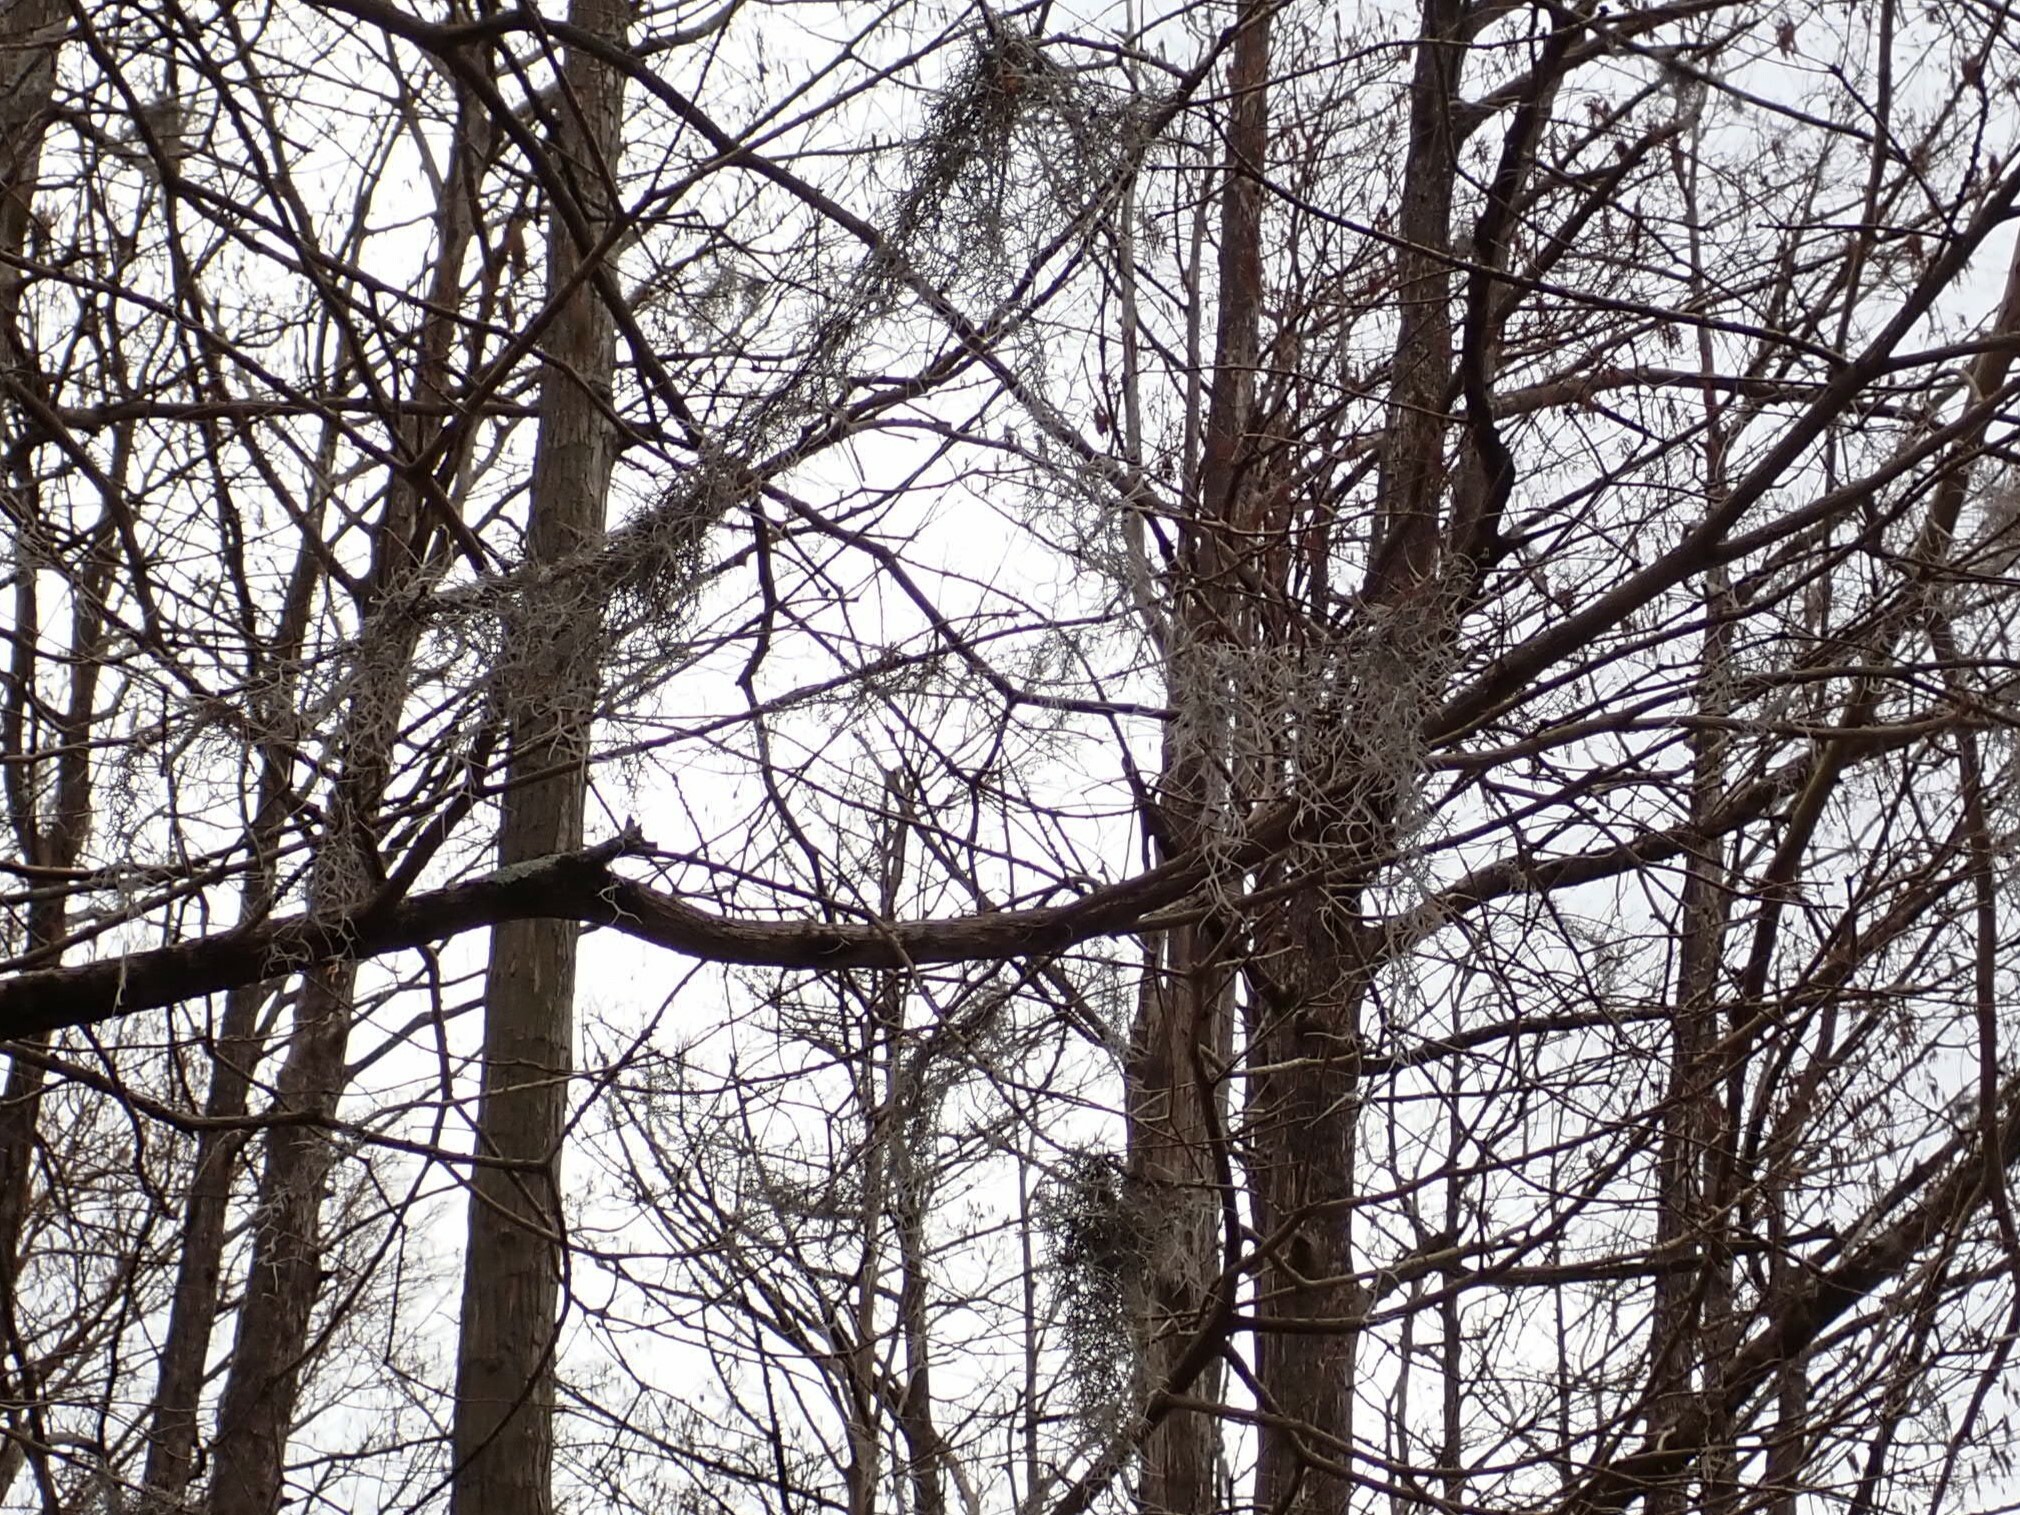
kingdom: Plantae
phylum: Tracheophyta
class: Liliopsida
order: Poales
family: Bromeliaceae
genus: Tillandsia
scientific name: Tillandsia usneoides
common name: Spanish moss
